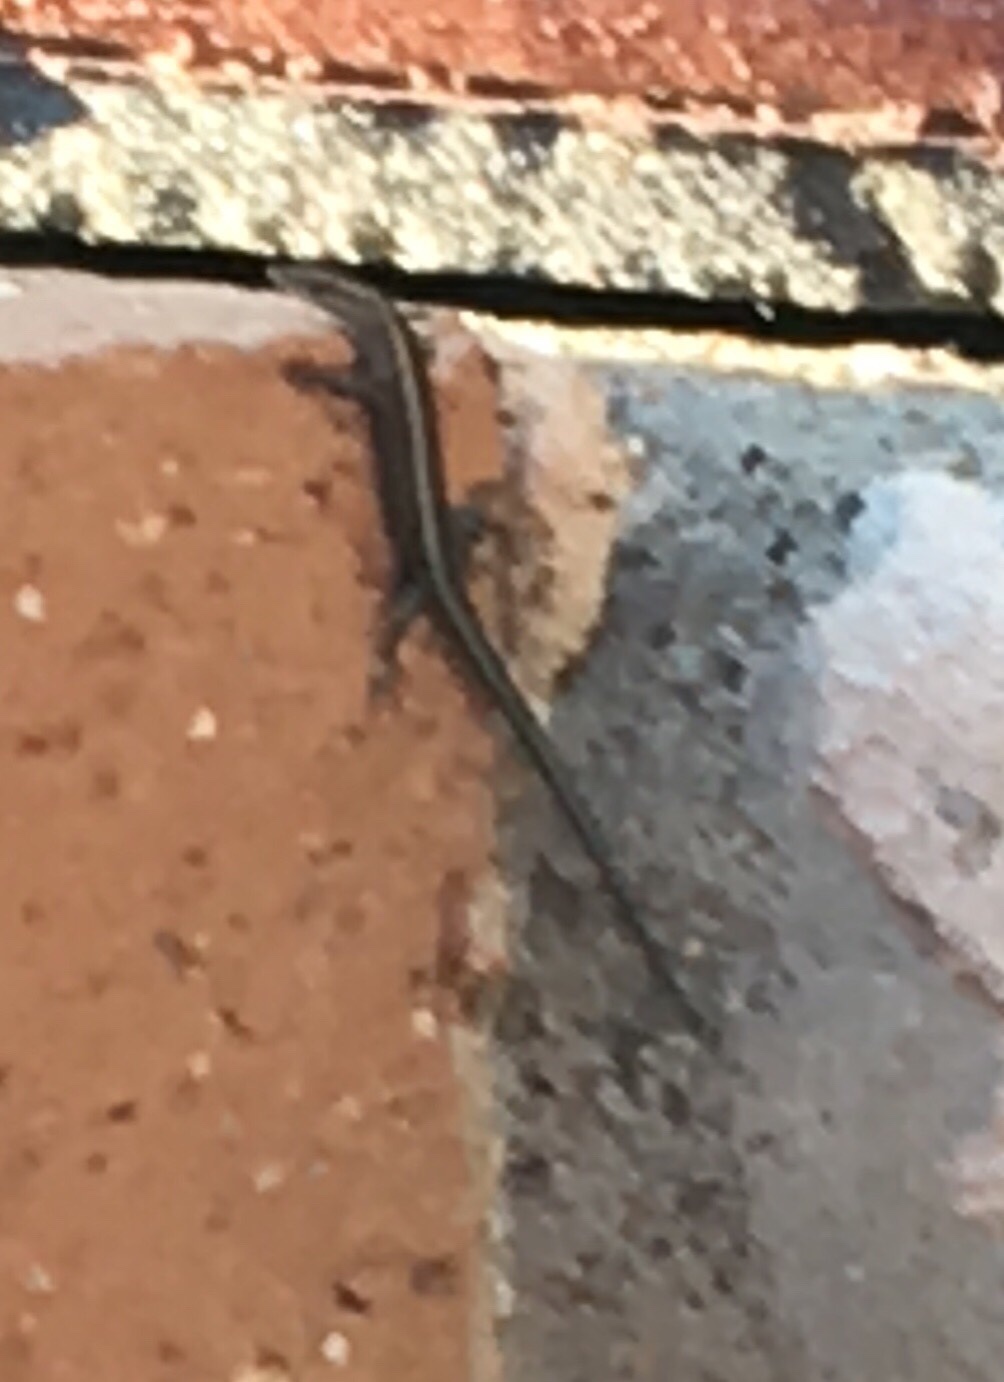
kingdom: Animalia
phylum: Chordata
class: Squamata
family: Scincidae
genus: Cryptoblepharus
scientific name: Cryptoblepharus pulcher
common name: Elegant snake-eyed skink
